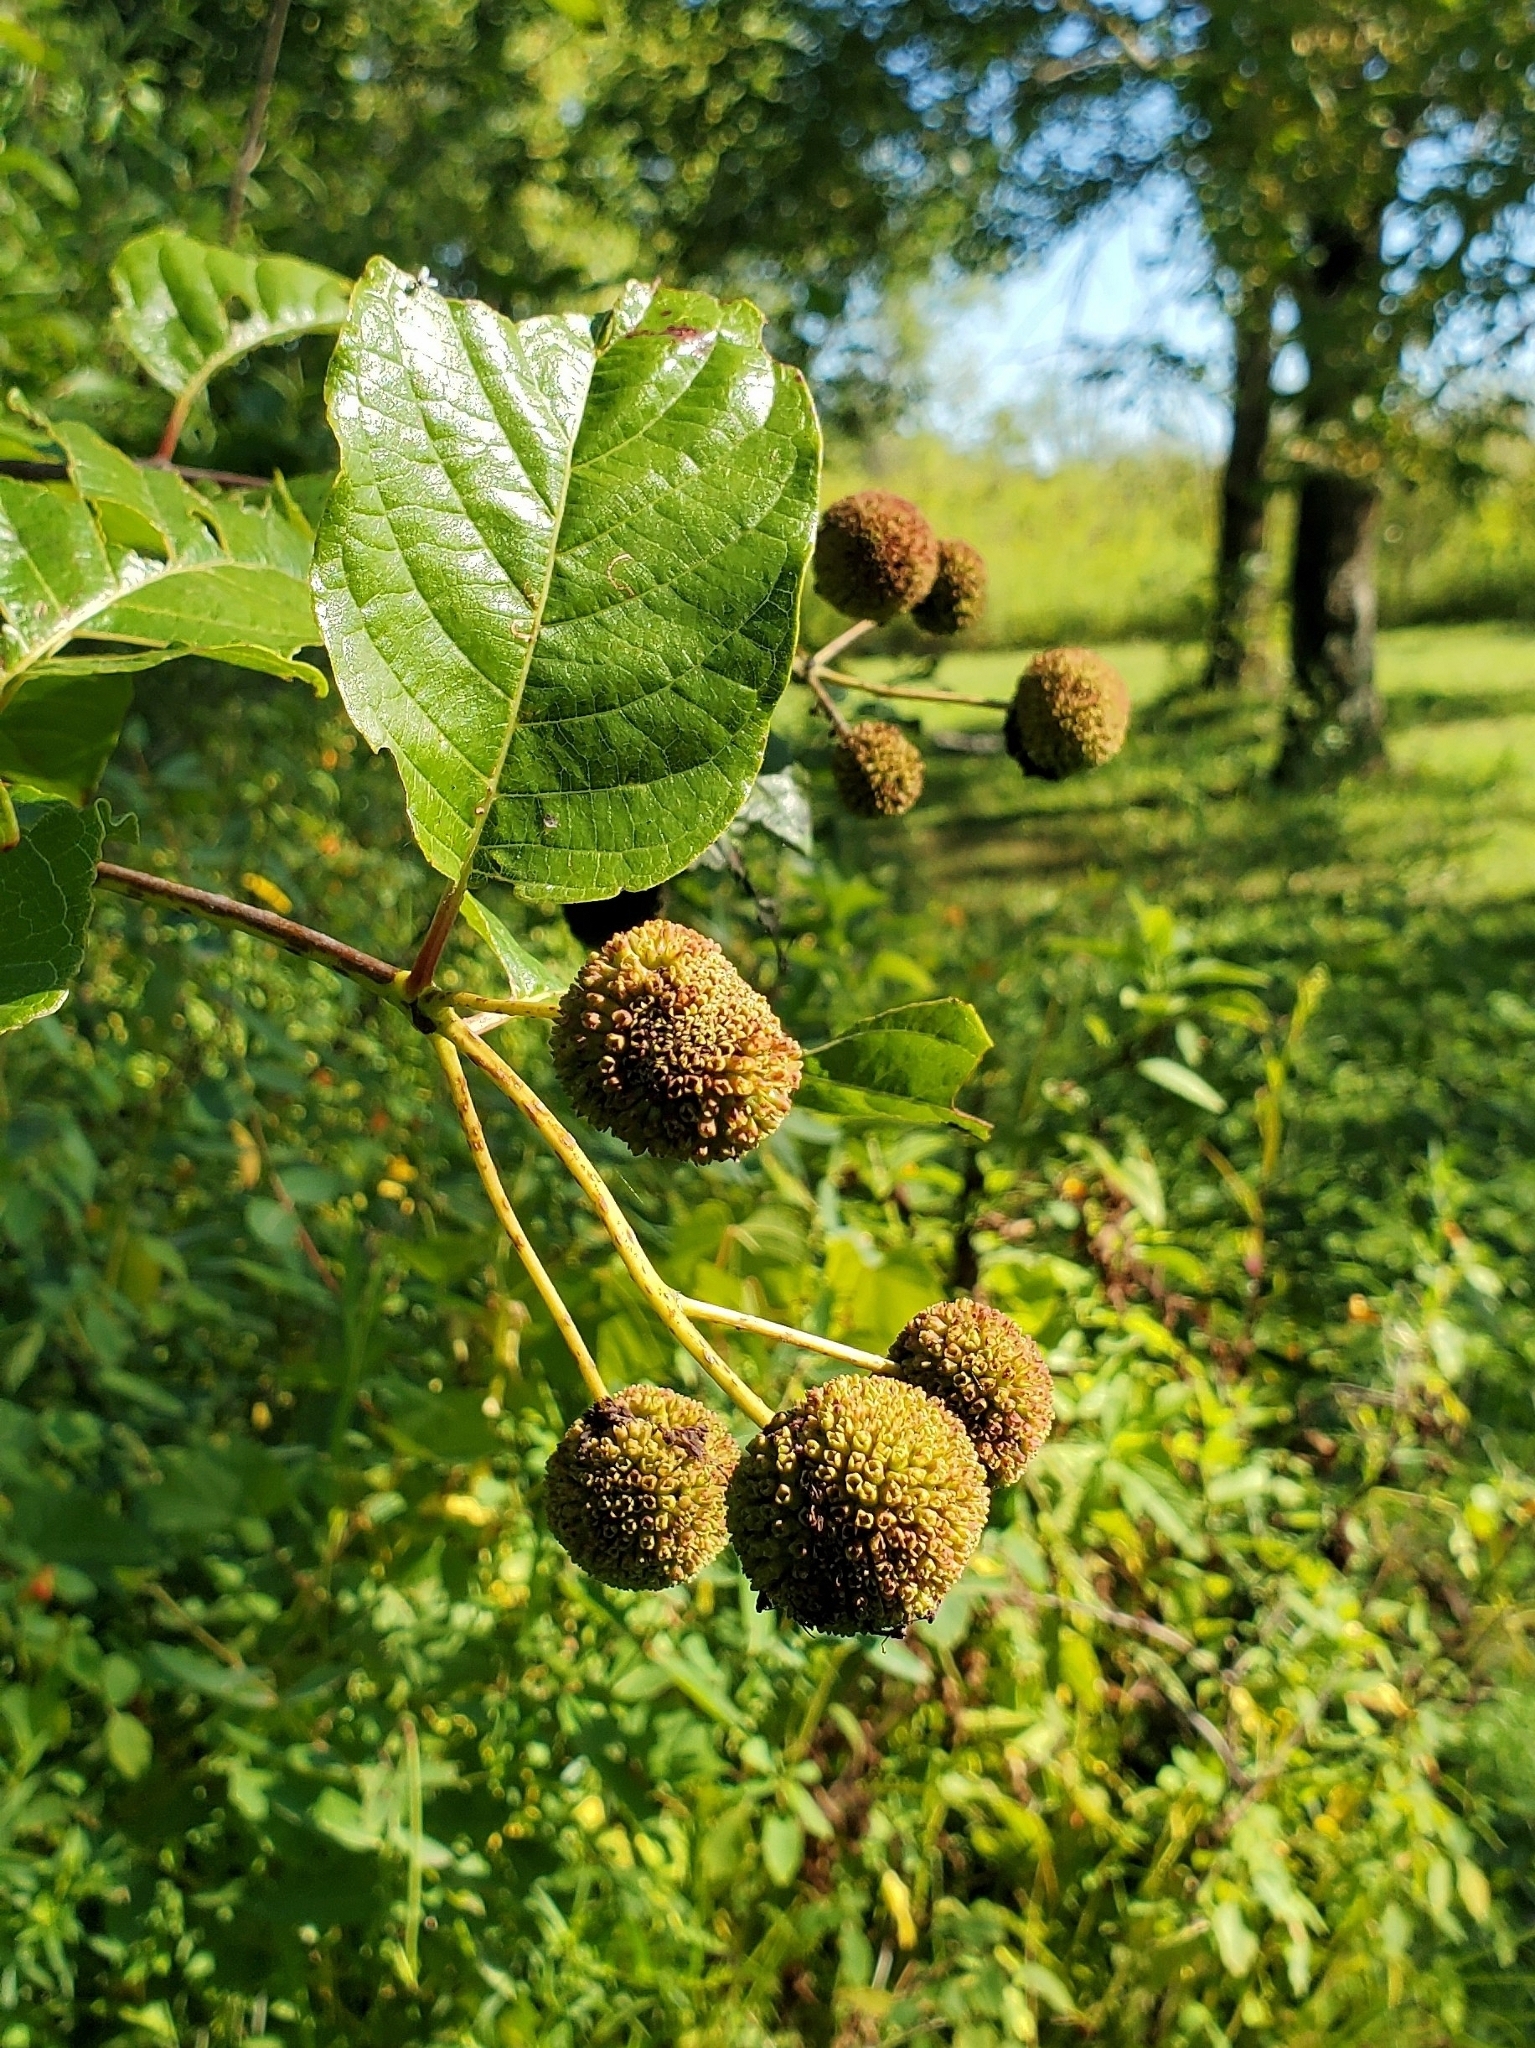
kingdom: Plantae
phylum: Tracheophyta
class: Magnoliopsida
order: Gentianales
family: Rubiaceae
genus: Cephalanthus
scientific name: Cephalanthus occidentalis
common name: Button-willow
